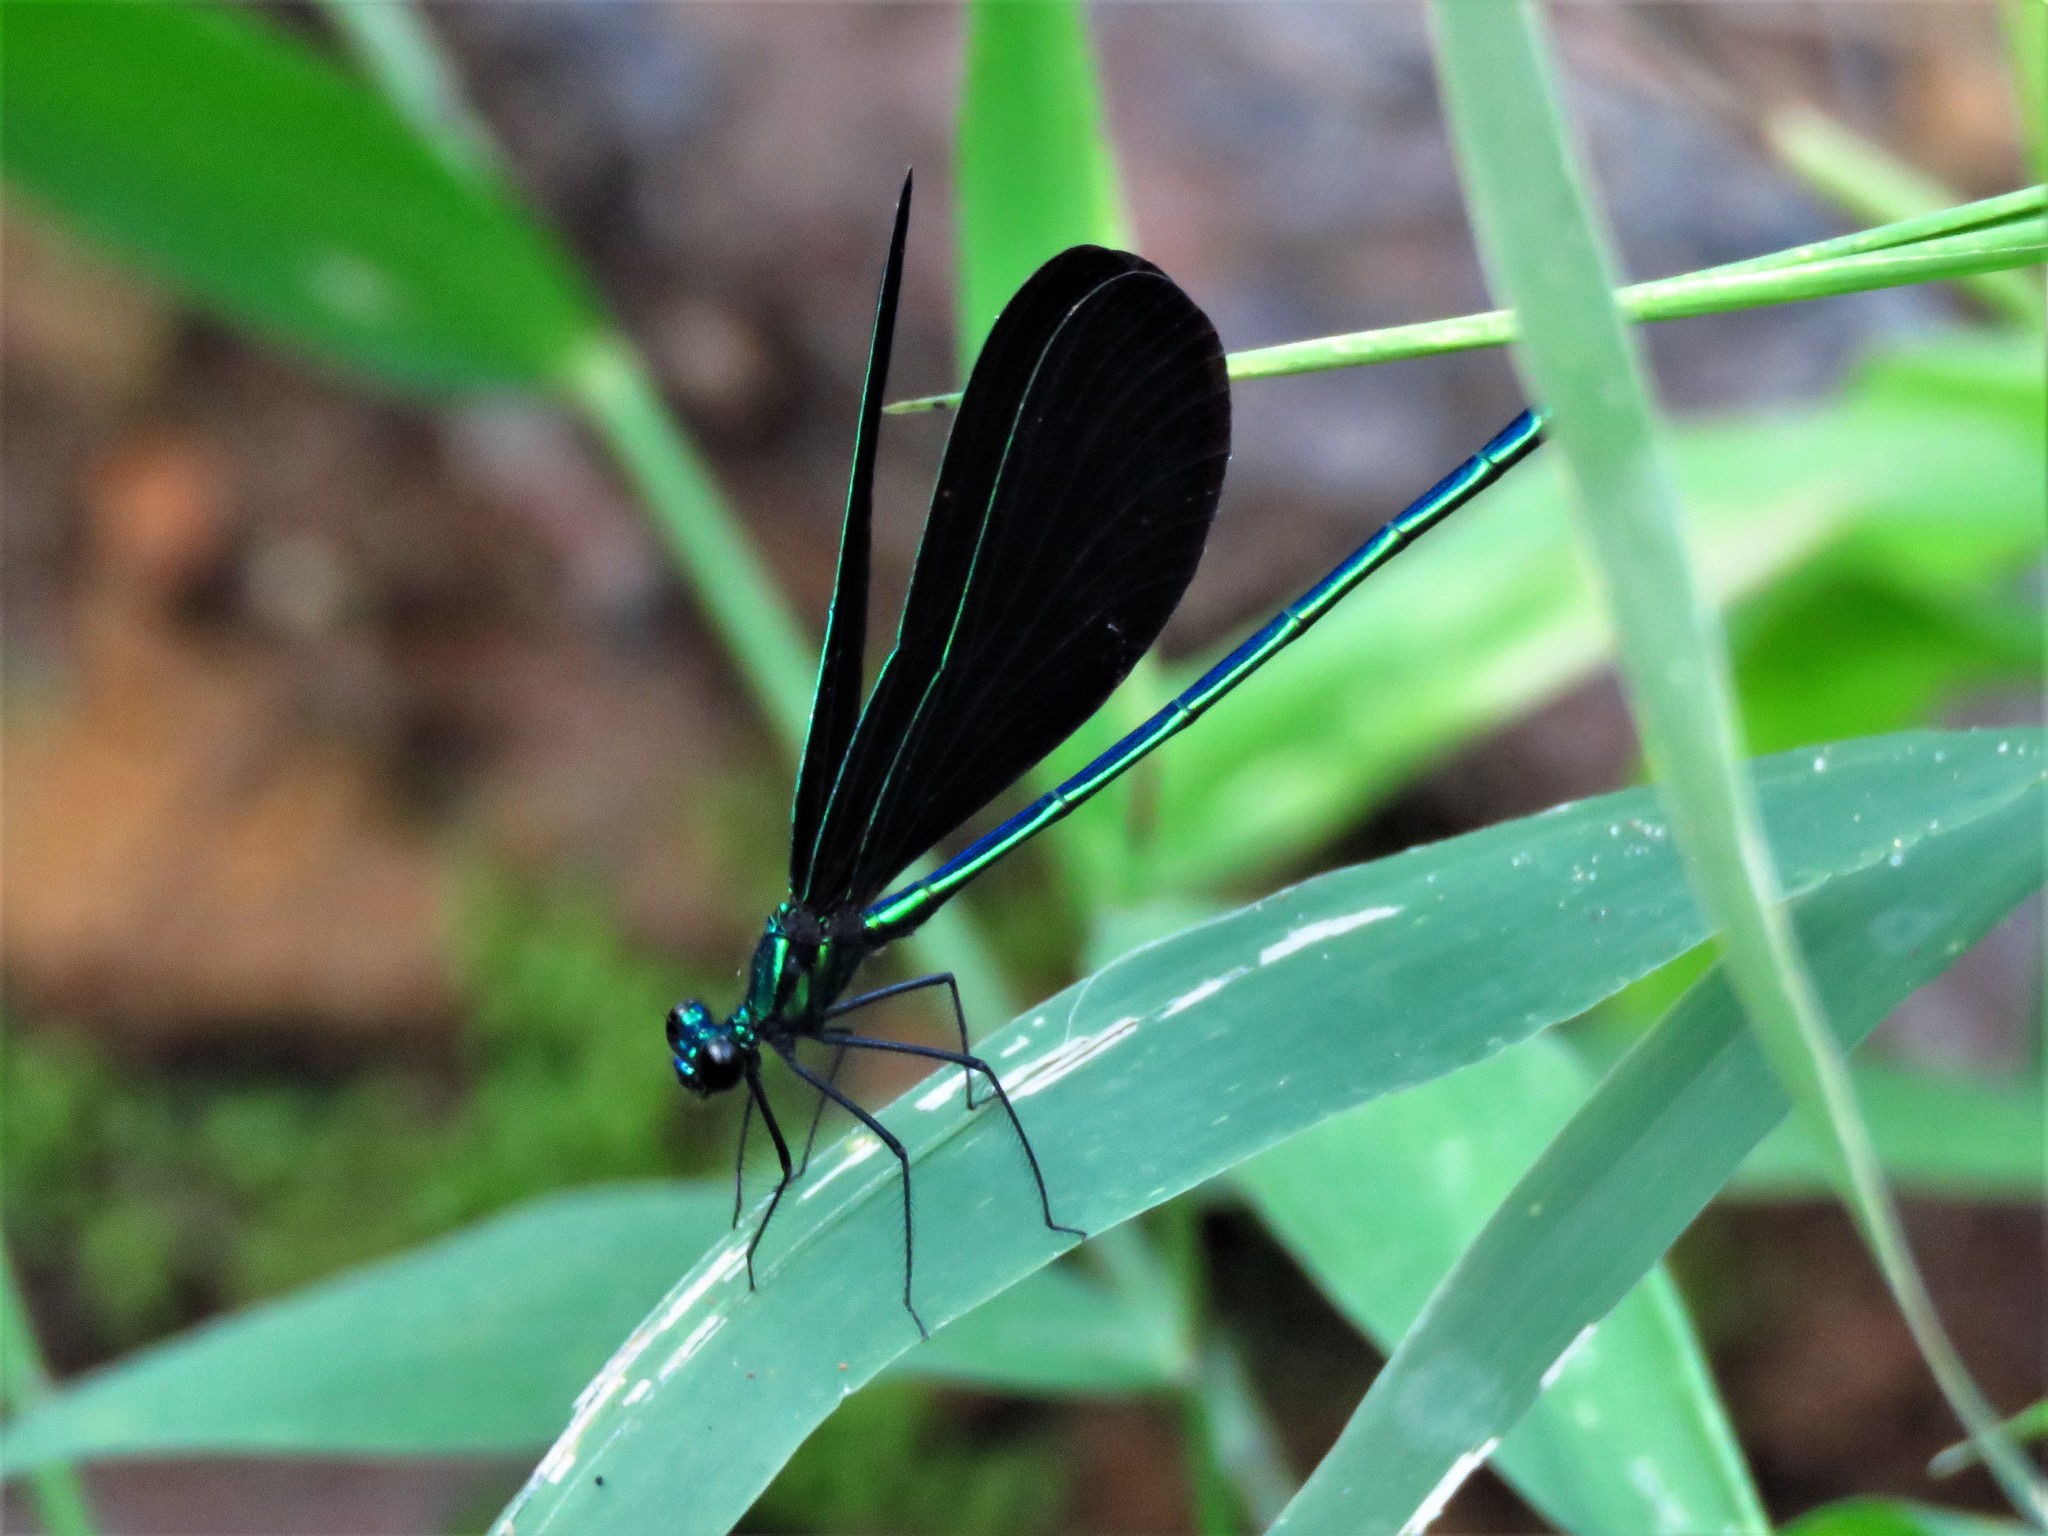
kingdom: Animalia
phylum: Arthropoda
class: Insecta
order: Odonata
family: Calopterygidae
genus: Calopteryx
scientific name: Calopteryx maculata
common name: Ebony jewelwing
